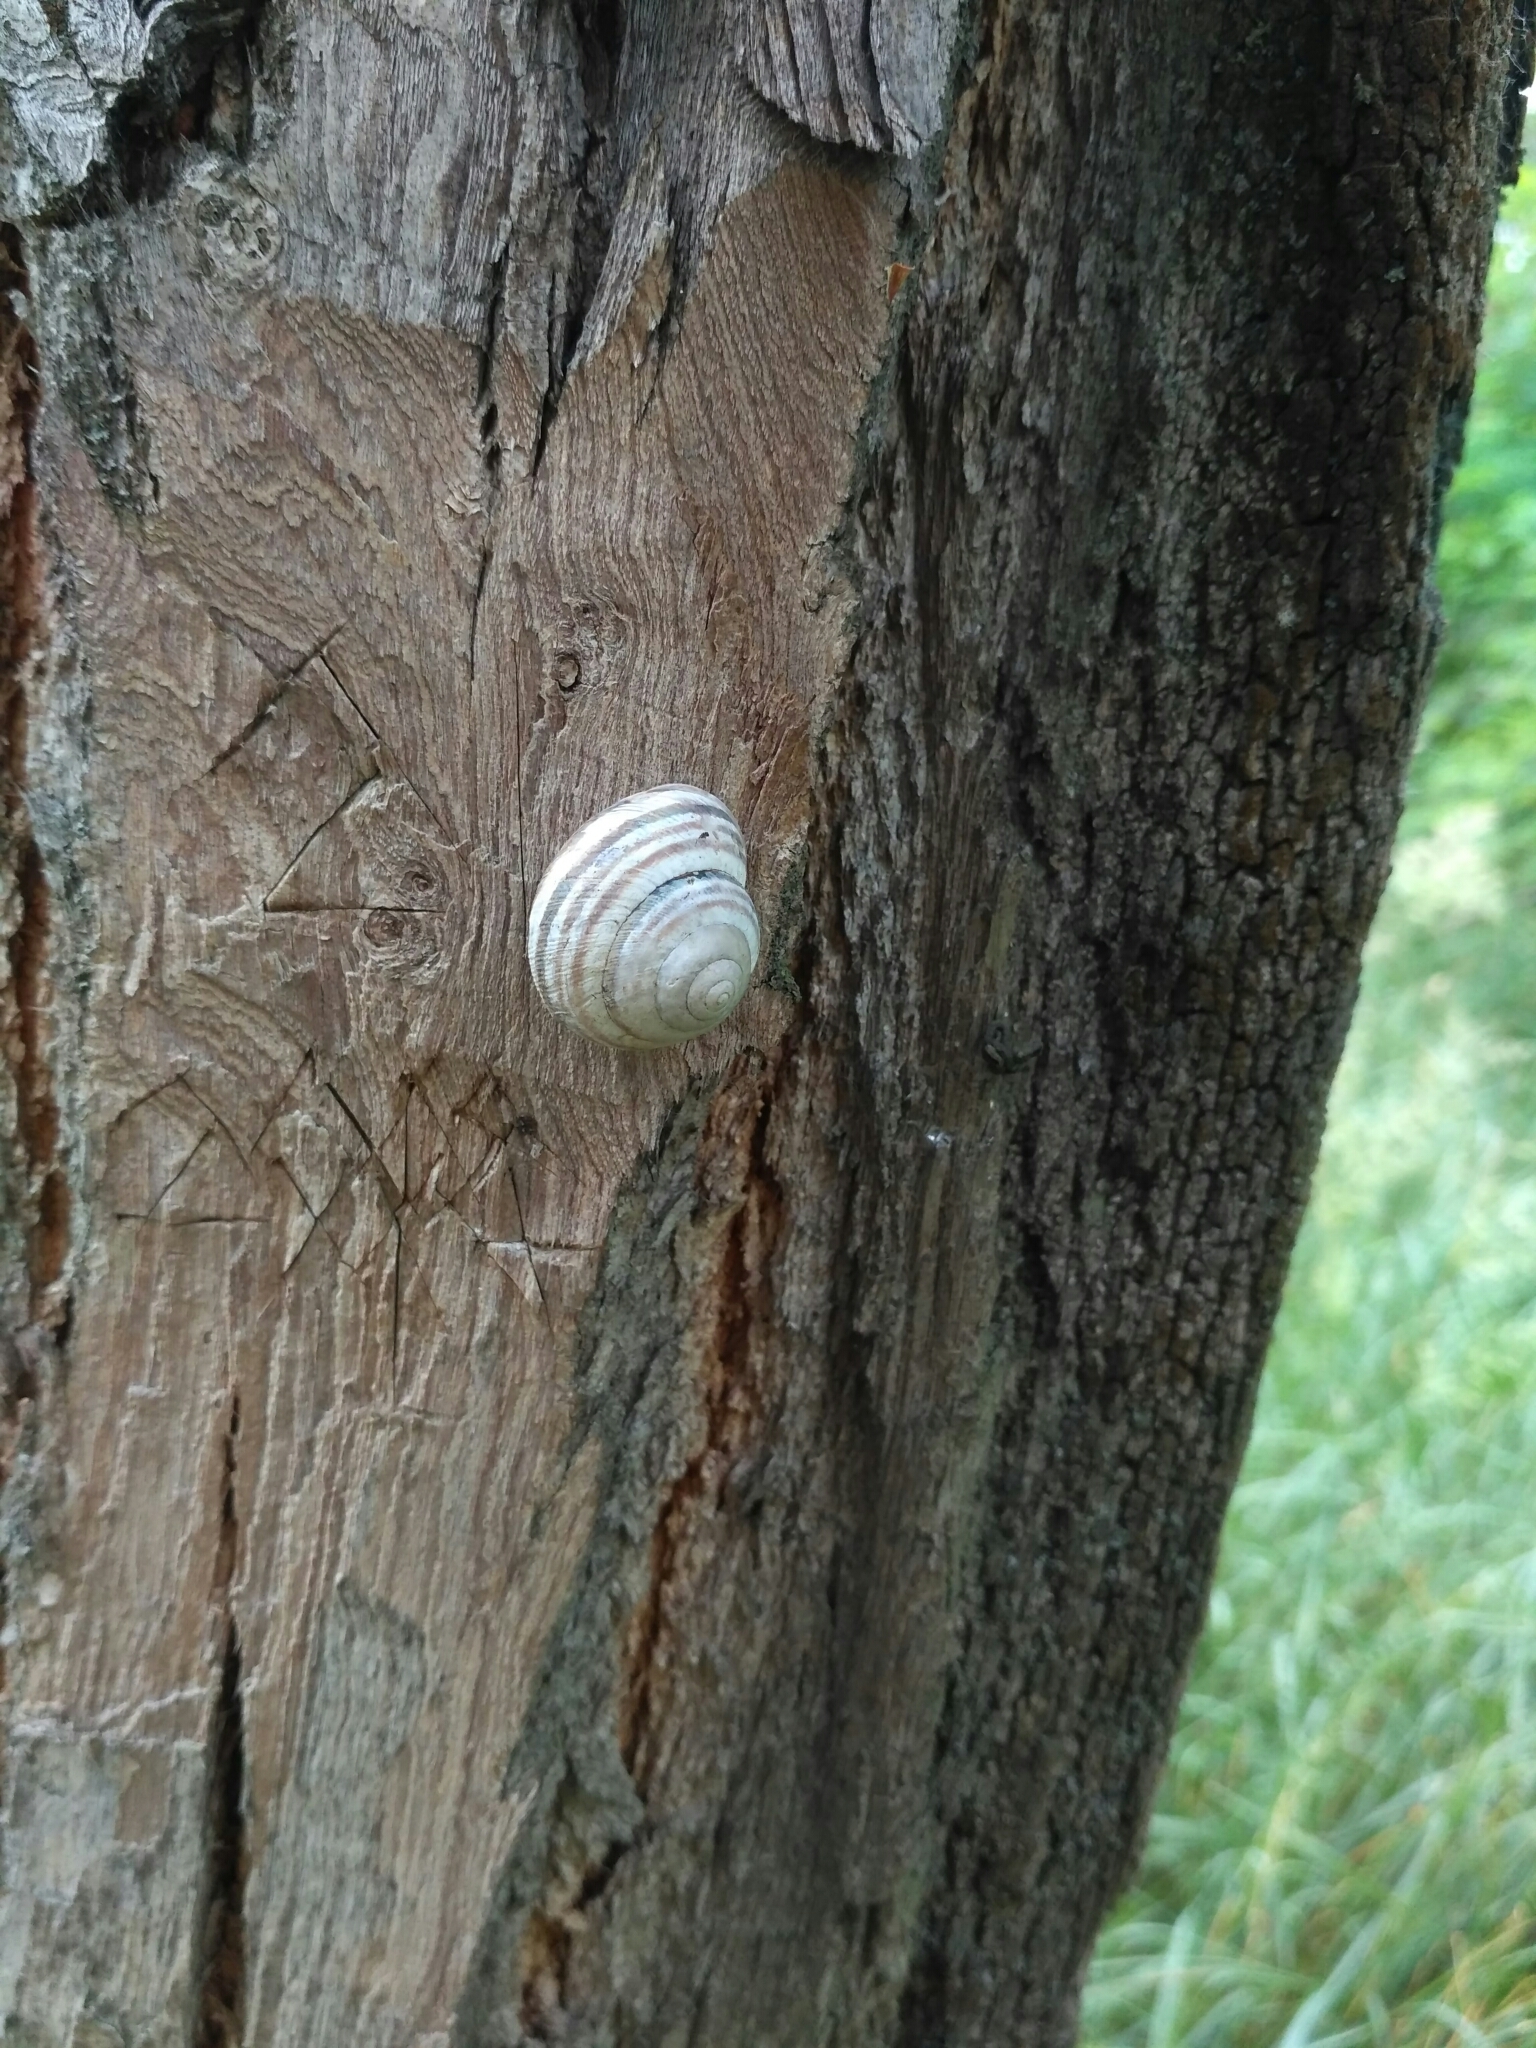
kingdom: Animalia
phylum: Mollusca
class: Gastropoda
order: Stylommatophora
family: Helicidae
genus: Caucasotachea
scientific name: Caucasotachea vindobonensis
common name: European helicid land snail
